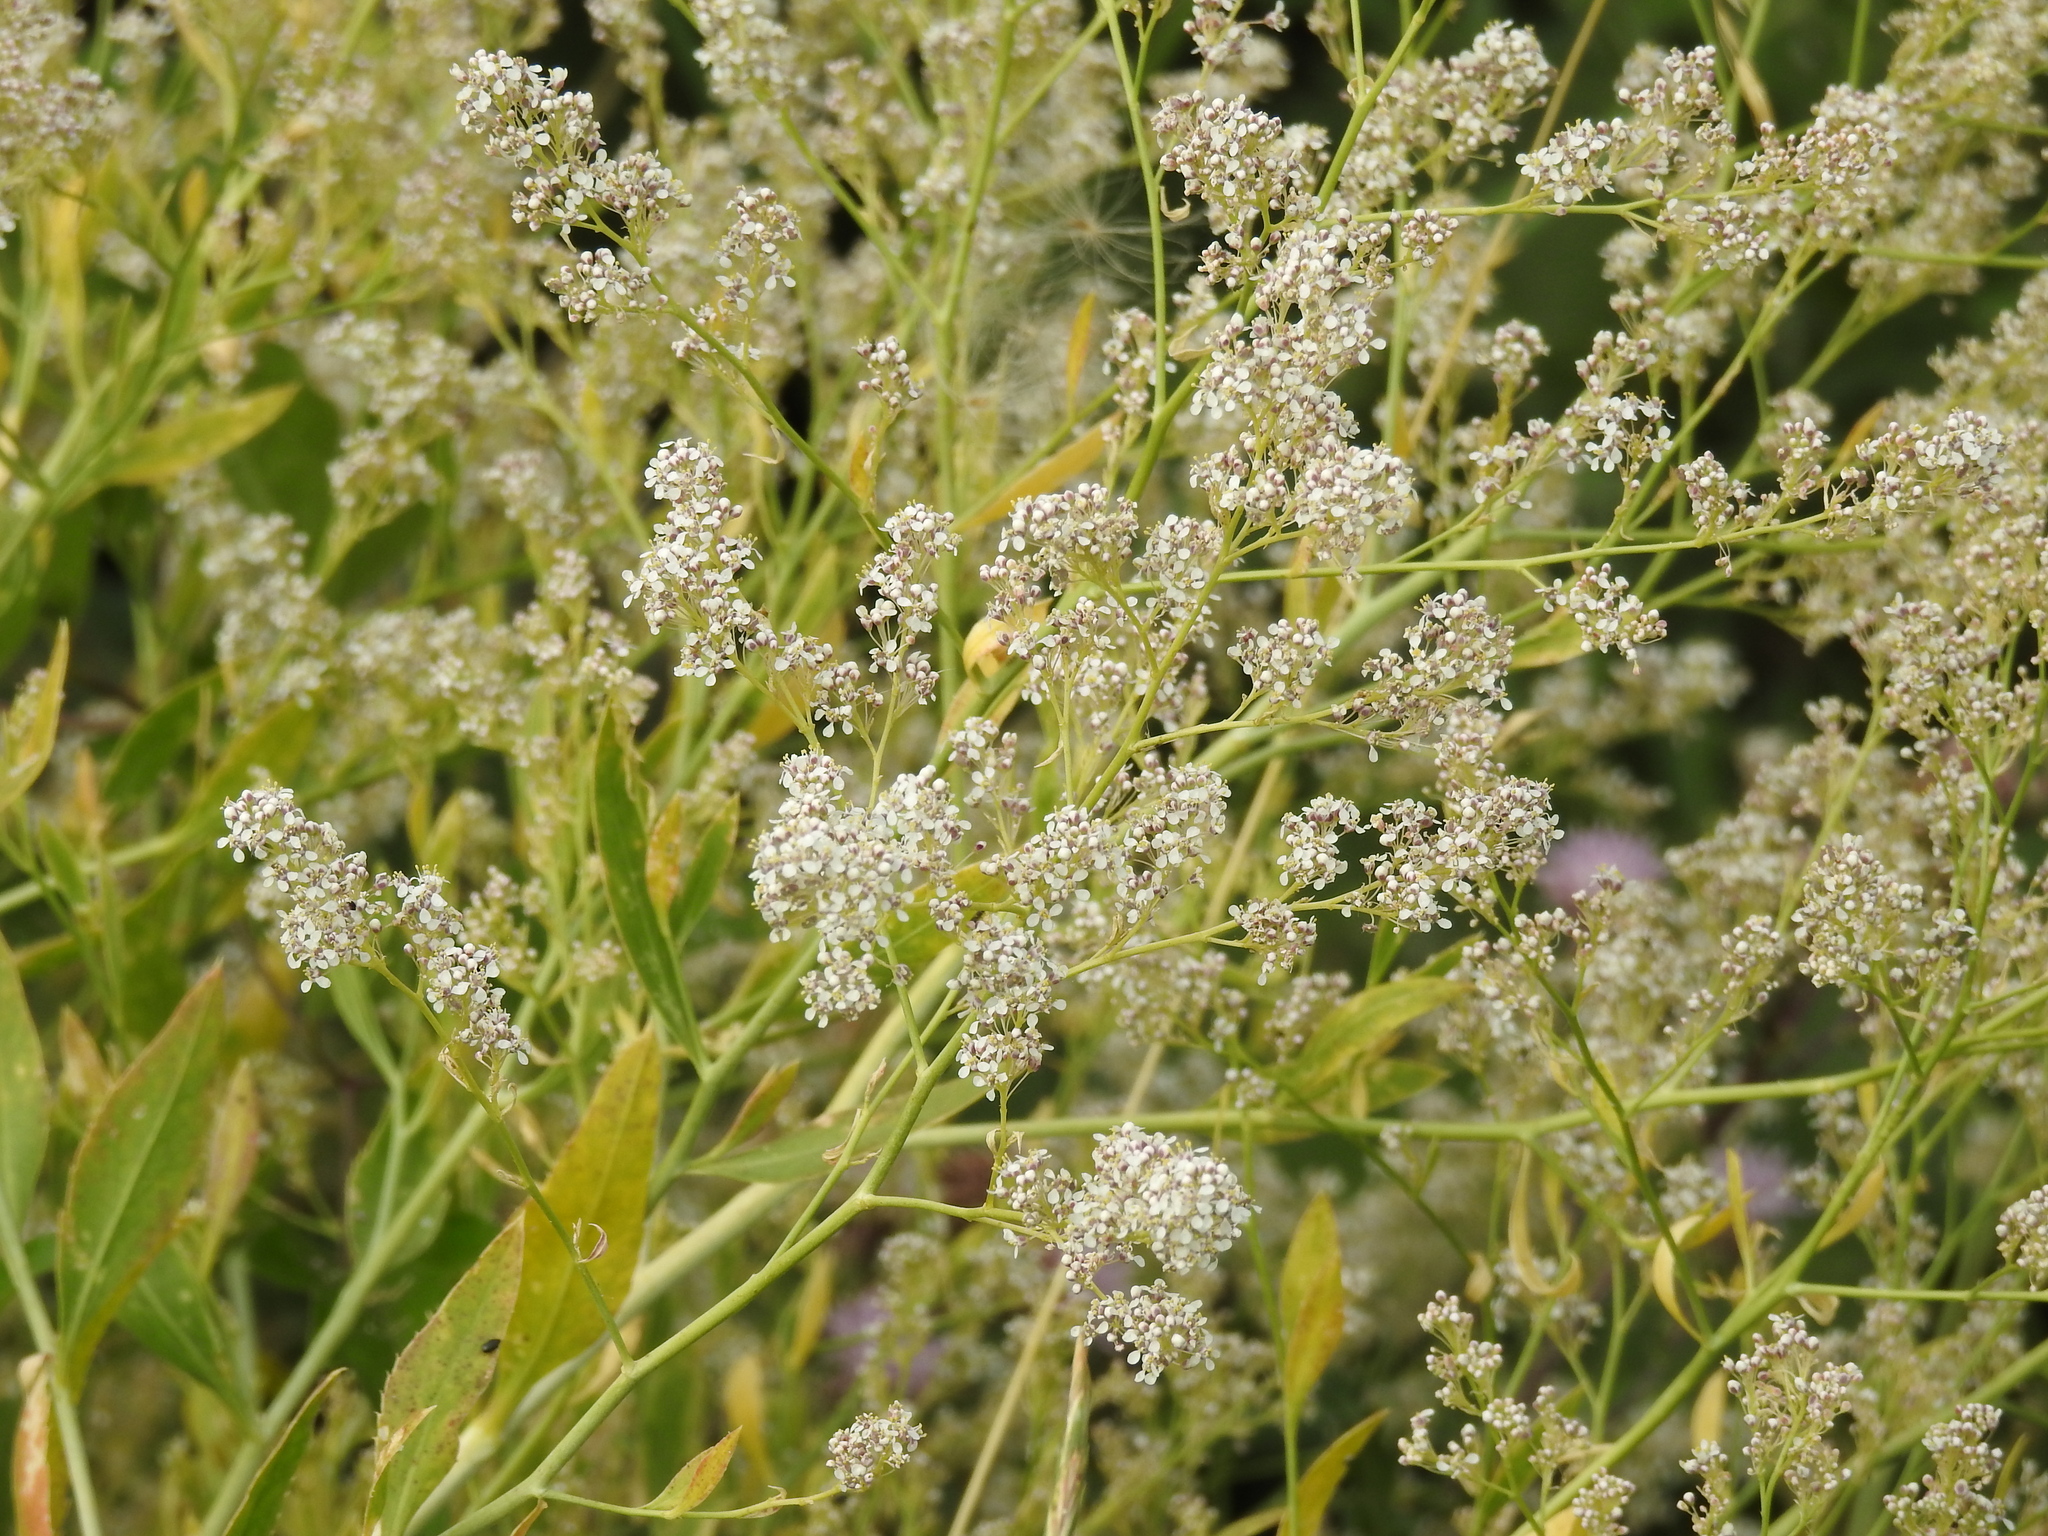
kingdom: Plantae
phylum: Tracheophyta
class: Magnoliopsida
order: Brassicales
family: Brassicaceae
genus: Lepidium
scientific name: Lepidium latifolium
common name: Dittander
